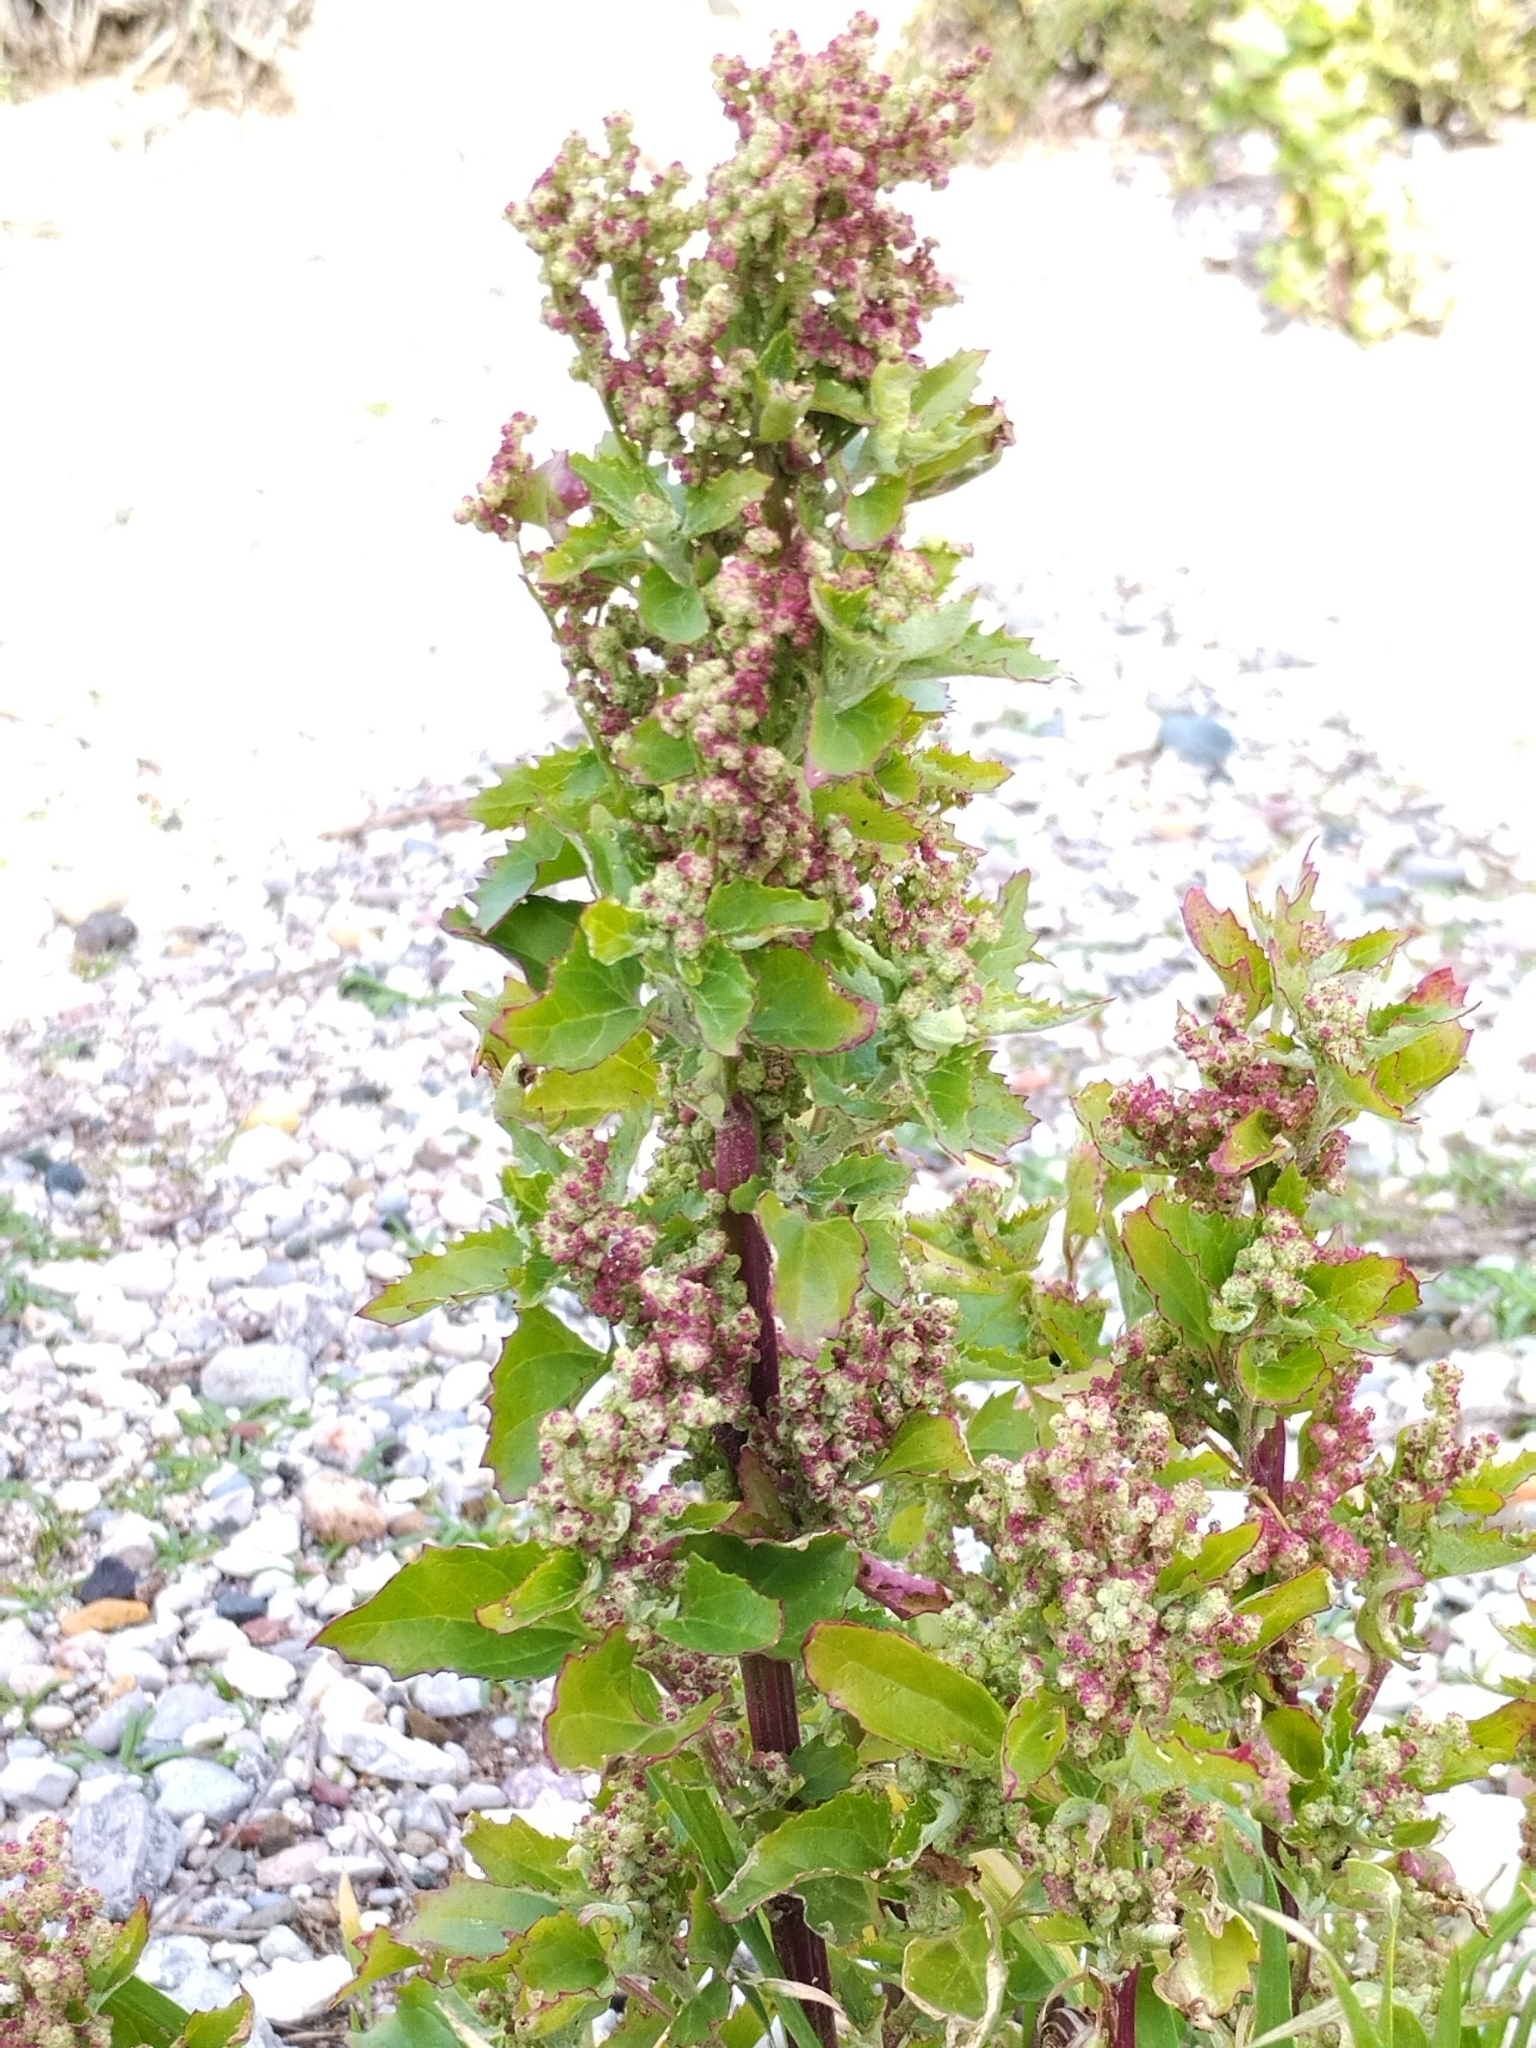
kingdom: Plantae
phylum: Tracheophyta
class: Magnoliopsida
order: Caryophyllales
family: Amaranthaceae
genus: Chenopodiastrum
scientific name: Chenopodiastrum murale
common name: Sowbane
